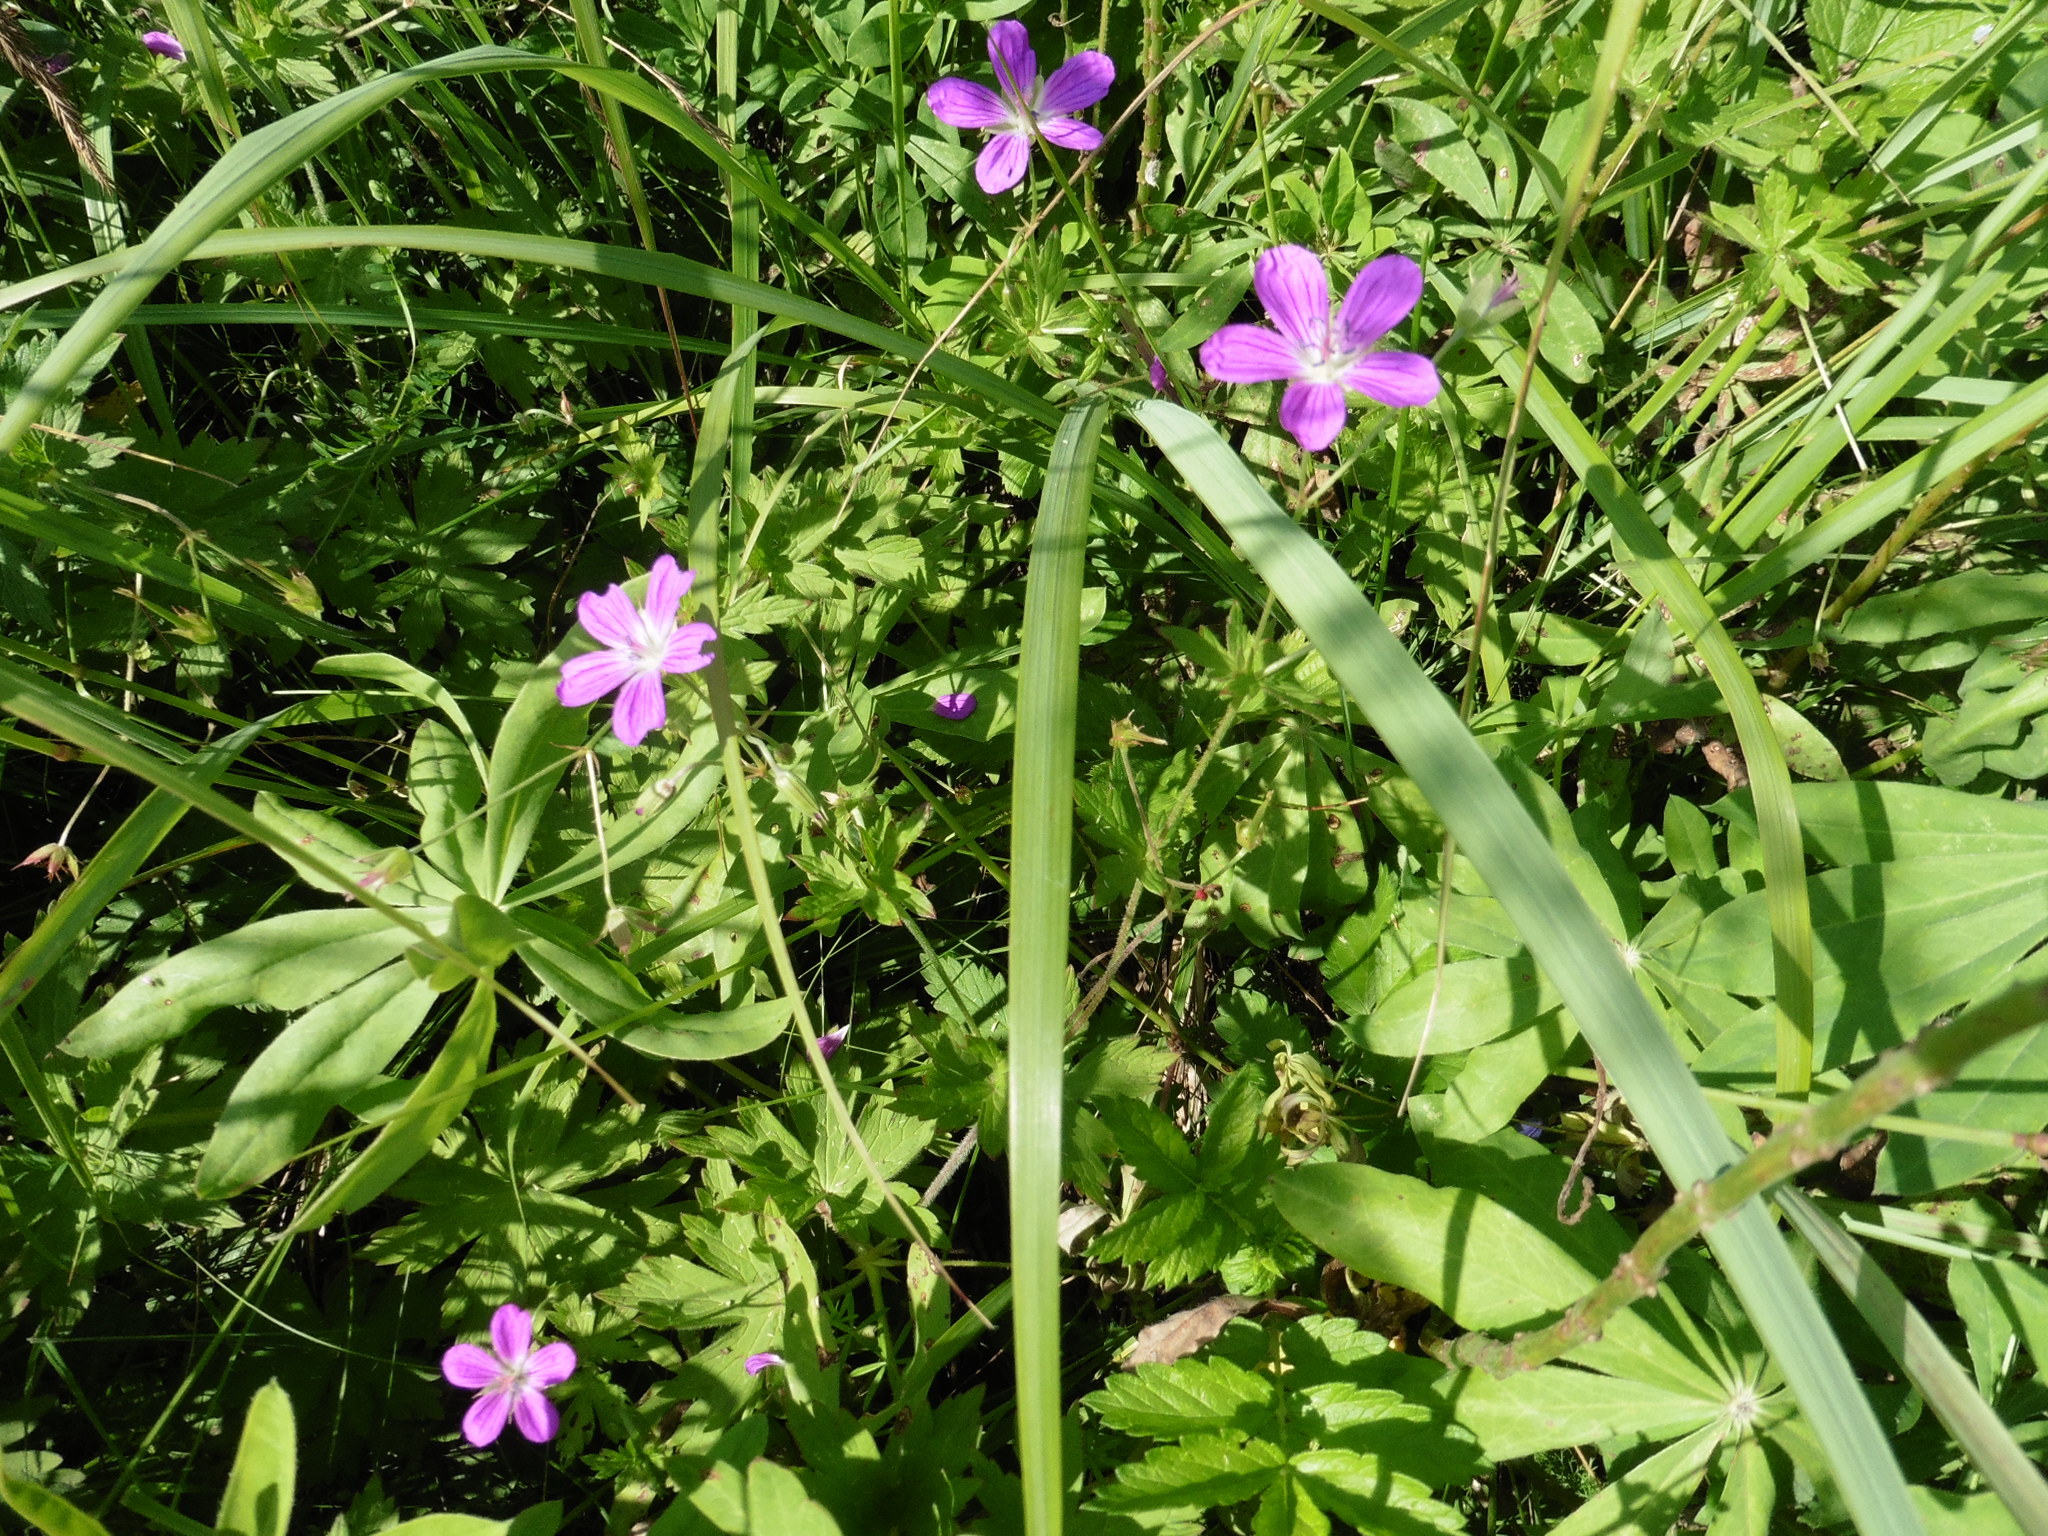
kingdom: Plantae
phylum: Tracheophyta
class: Magnoliopsida
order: Geraniales
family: Geraniaceae
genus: Geranium
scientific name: Geranium palustre
